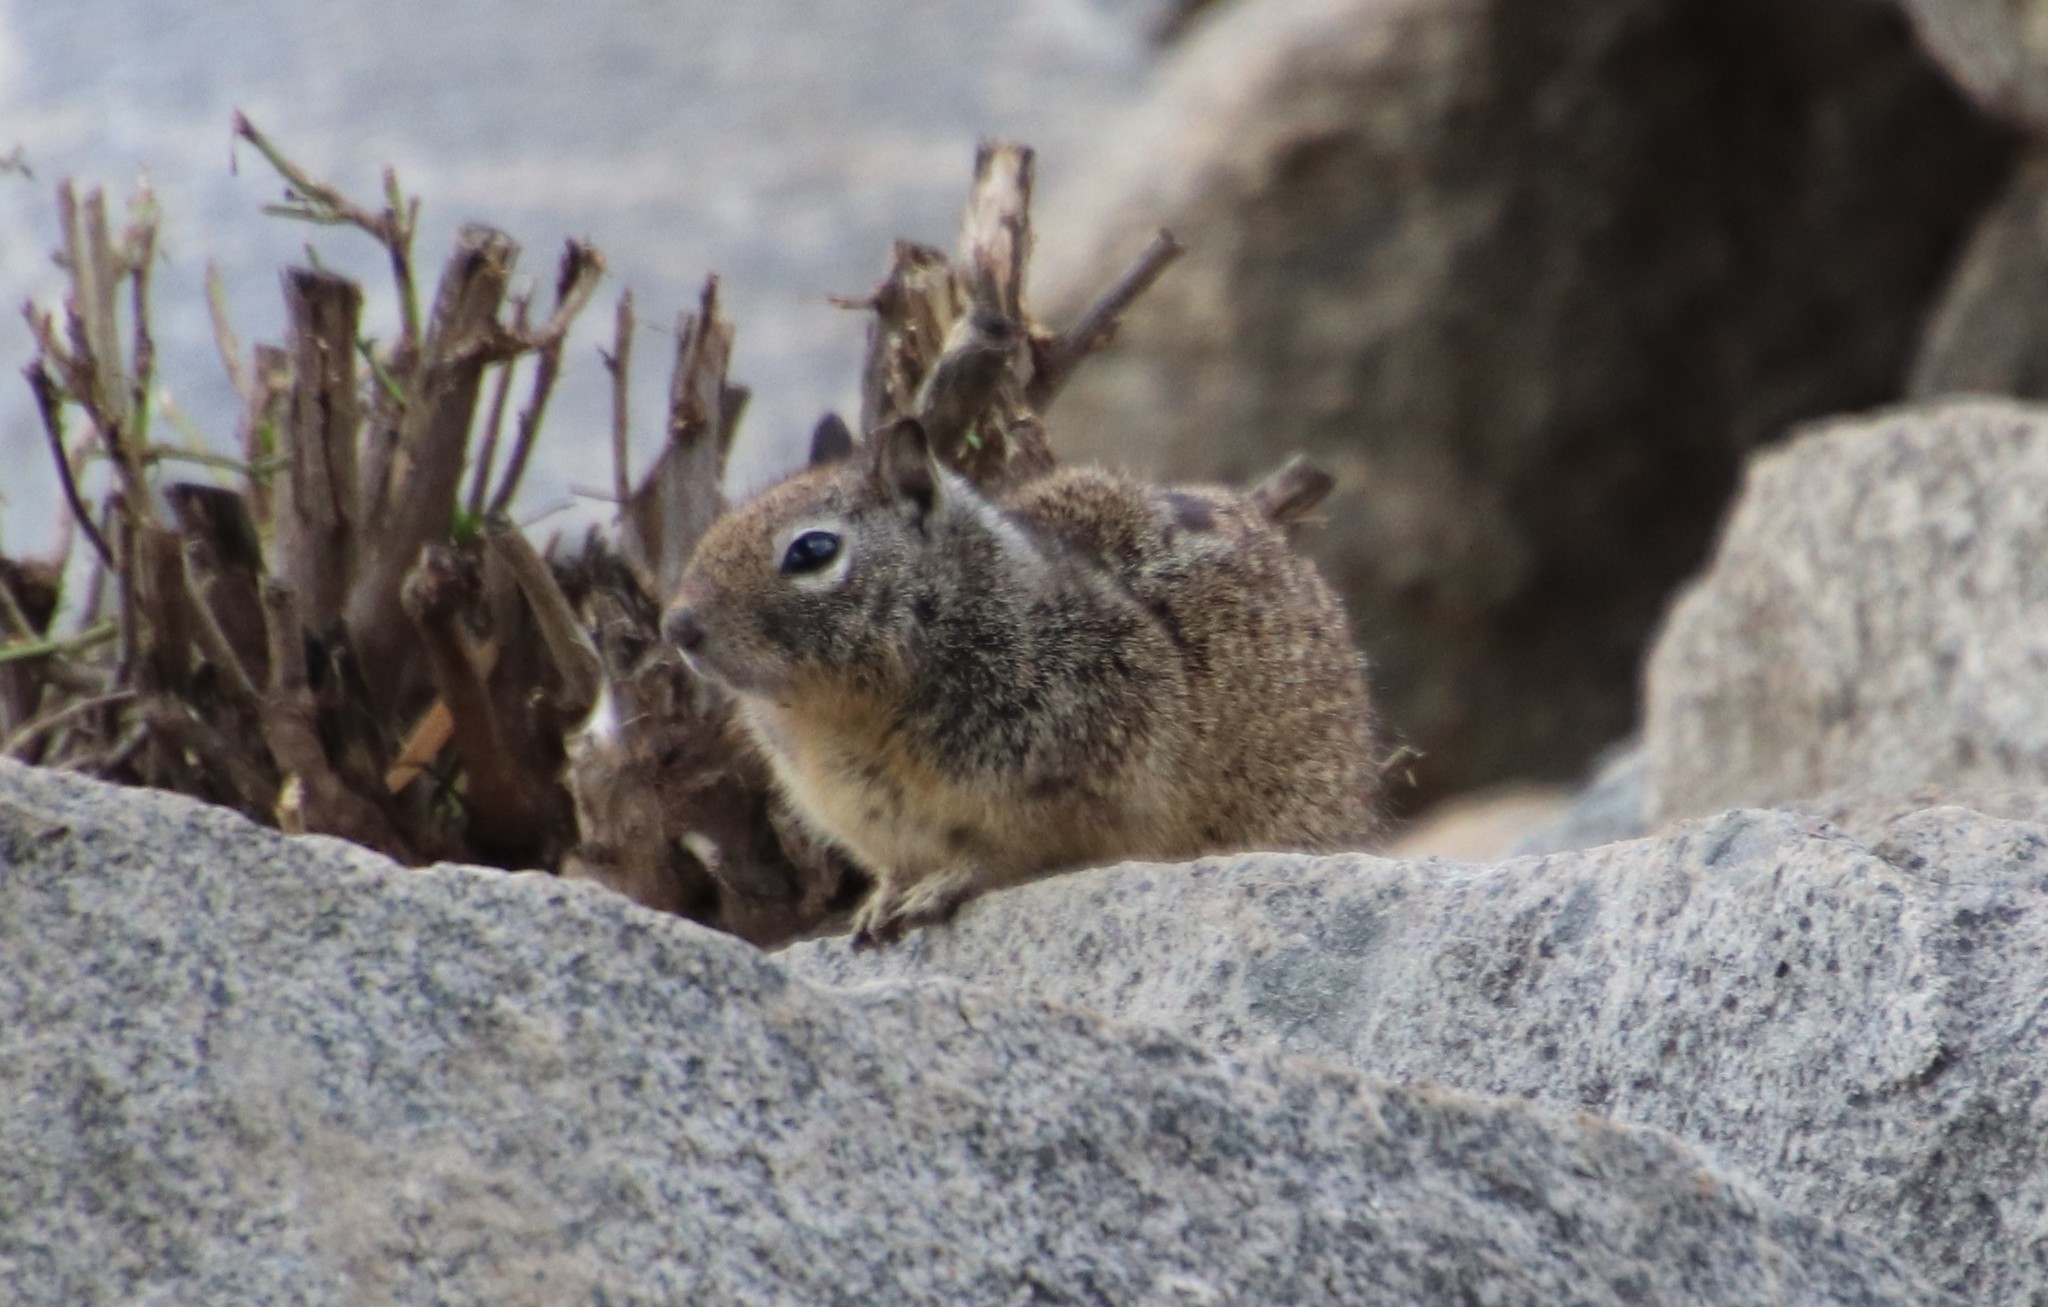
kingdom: Animalia
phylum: Chordata
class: Mammalia
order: Rodentia
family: Sciuridae
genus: Otospermophilus
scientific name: Otospermophilus beecheyi
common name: California ground squirrel
